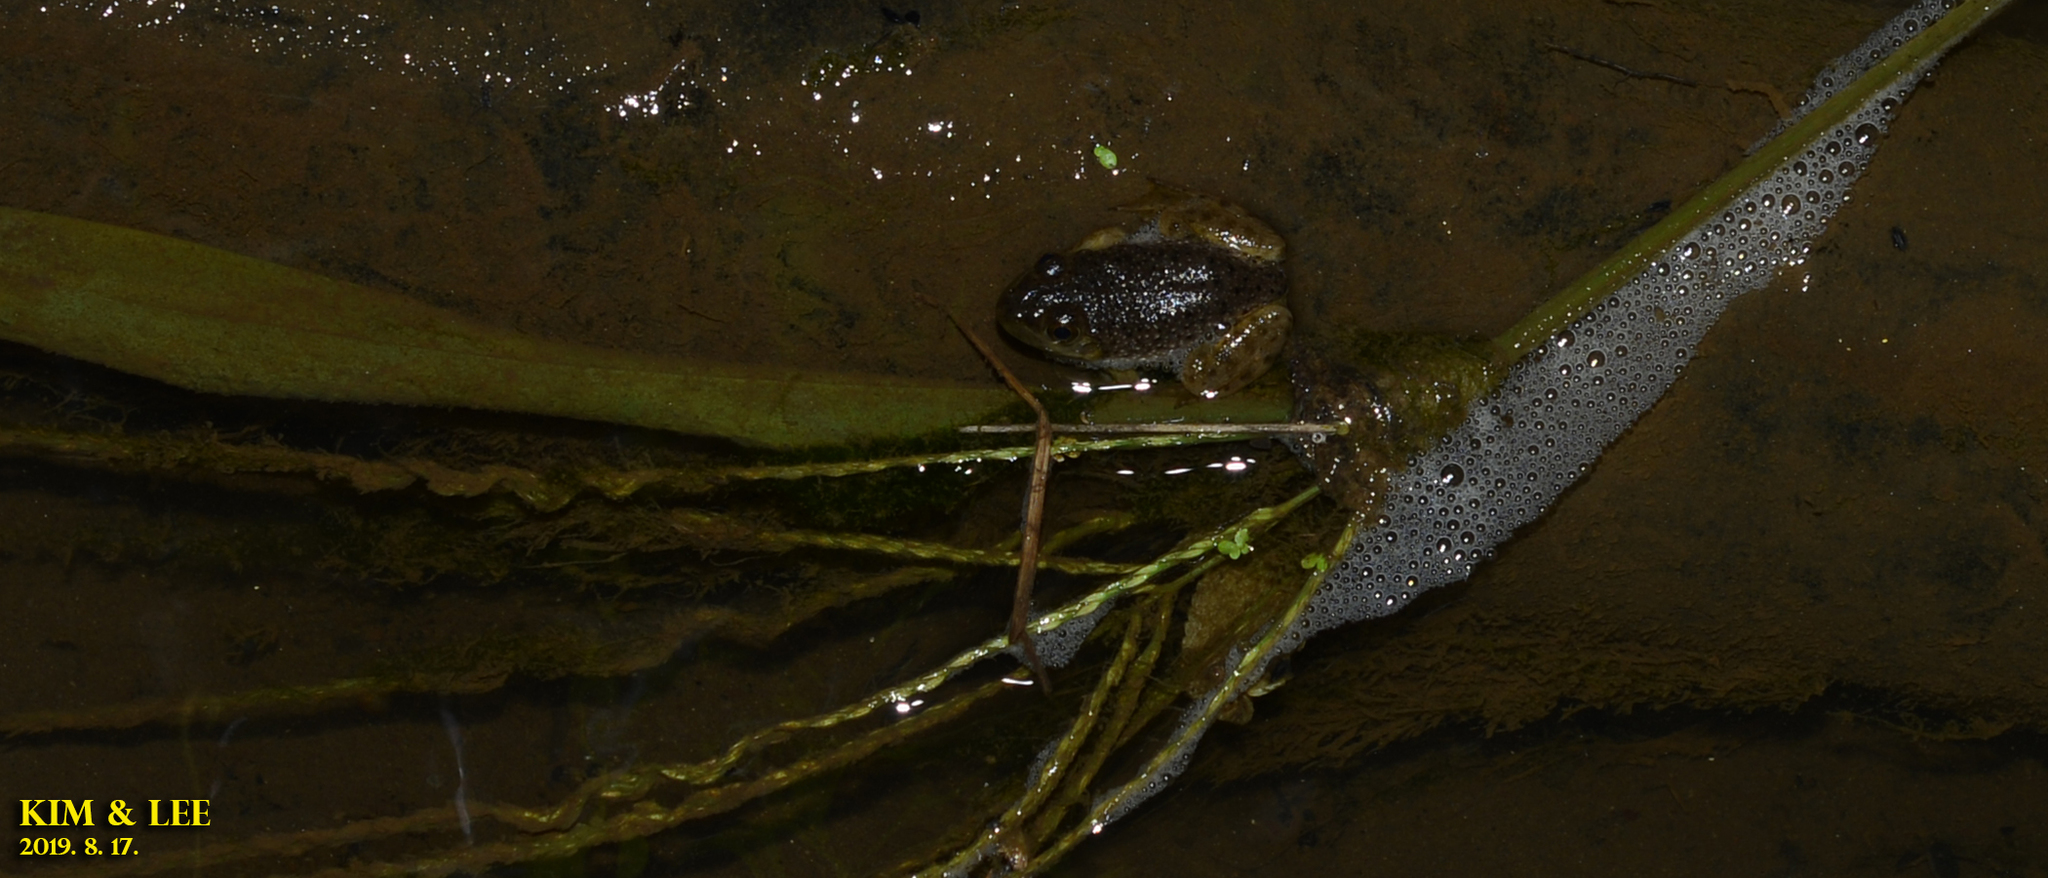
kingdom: Animalia
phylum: Chordata
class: Amphibia
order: Anura
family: Ranidae
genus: Lithobates
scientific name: Lithobates catesbeianus
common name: American bullfrog
